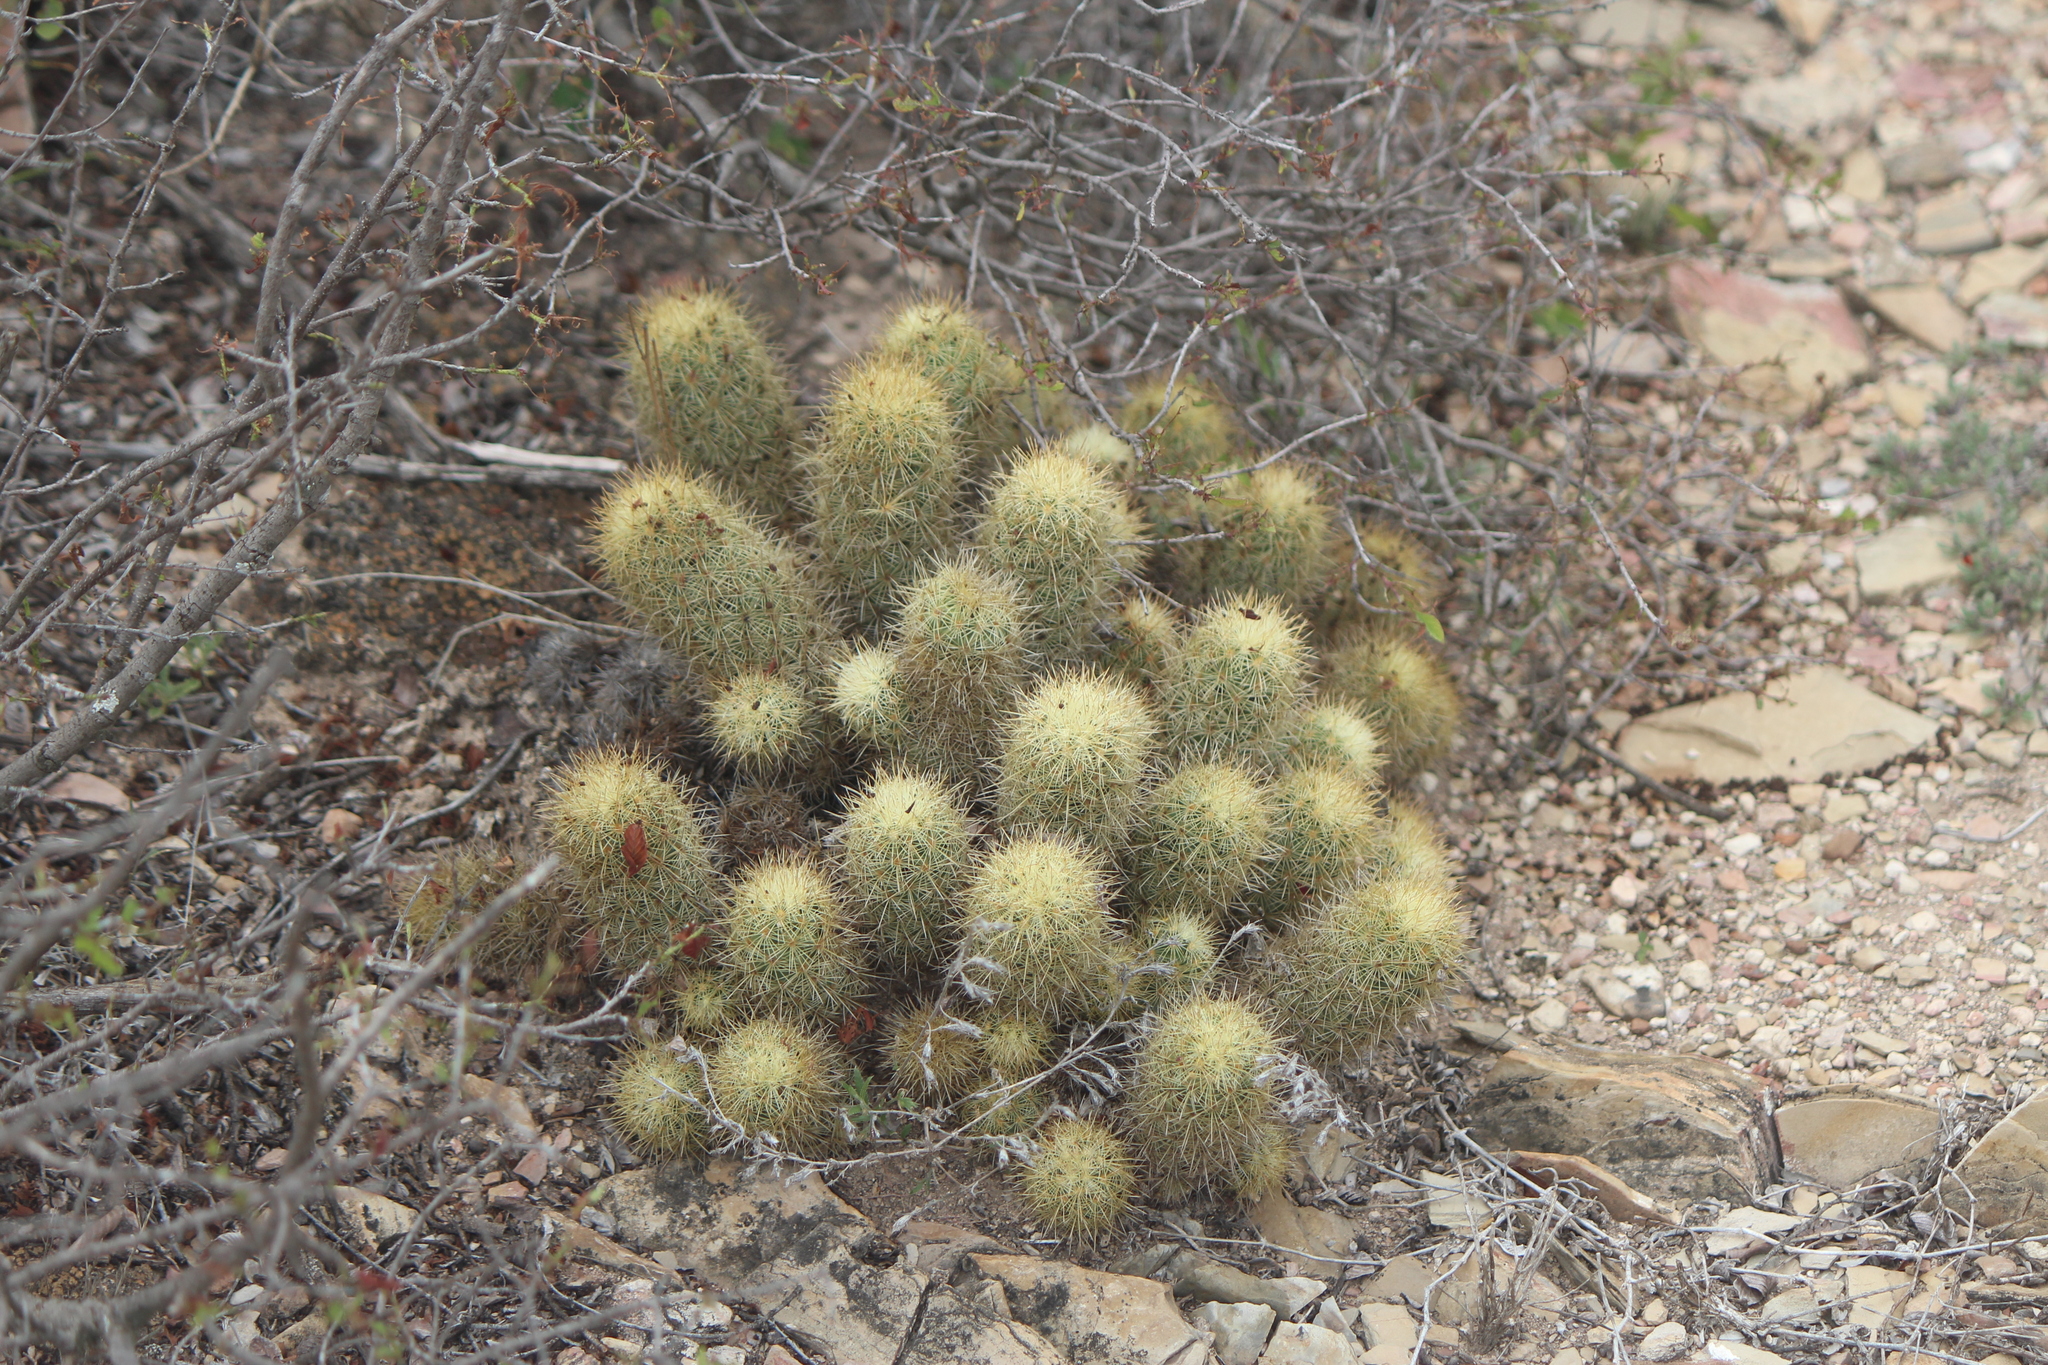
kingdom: Plantae
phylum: Tracheophyta
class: Magnoliopsida
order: Caryophyllales
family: Cactaceae
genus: Mammillaria
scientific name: Mammillaria elongata
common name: Golden star cactus
